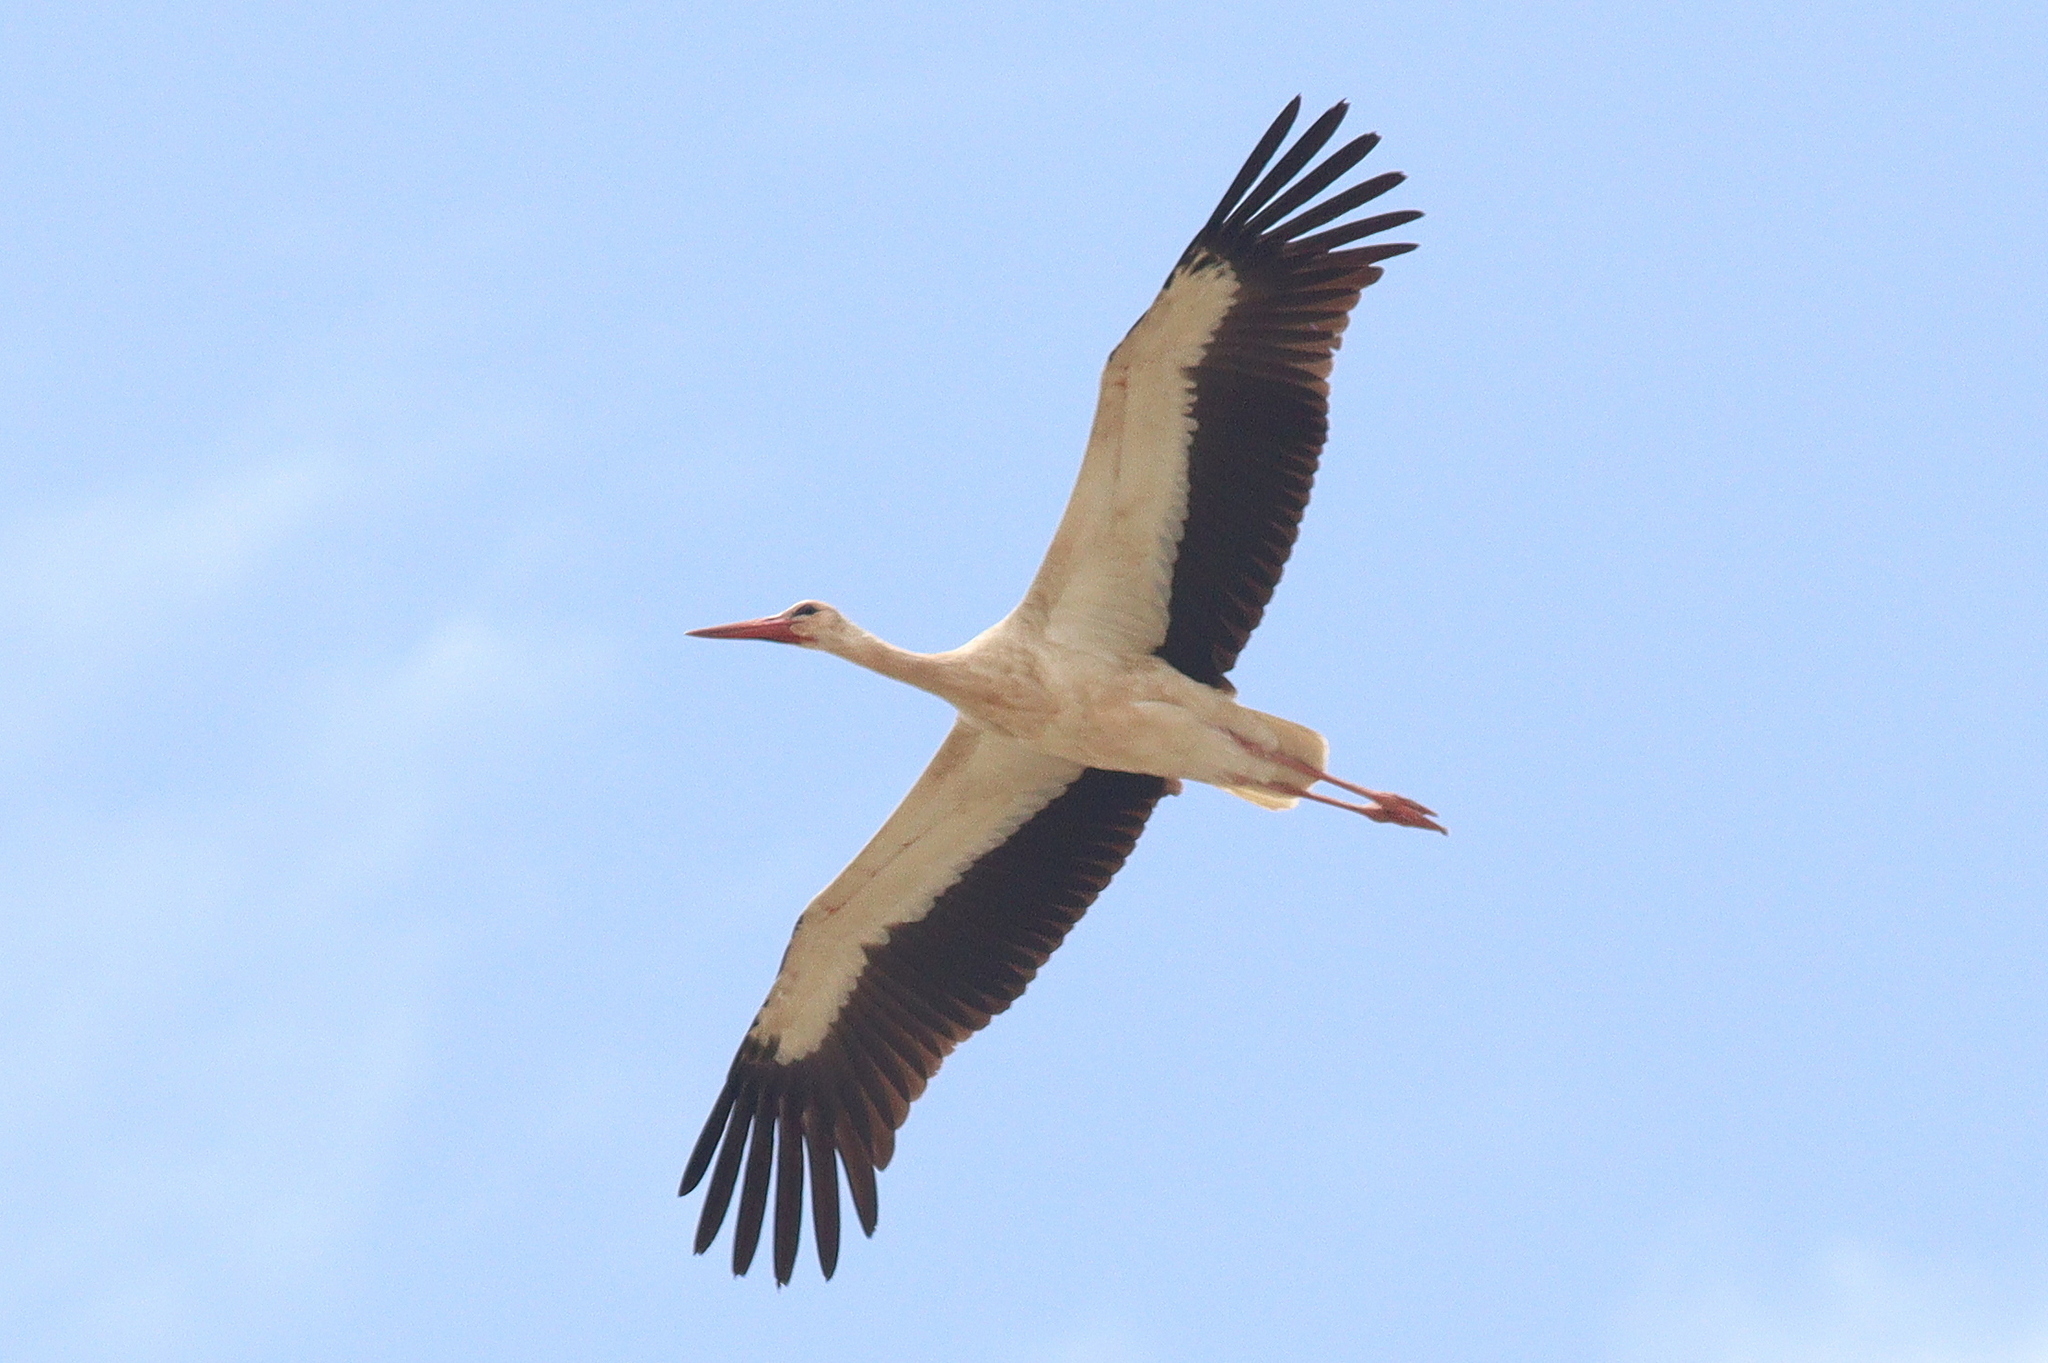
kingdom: Animalia
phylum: Chordata
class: Aves
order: Ciconiiformes
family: Ciconiidae
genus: Ciconia
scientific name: Ciconia ciconia
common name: White stork
